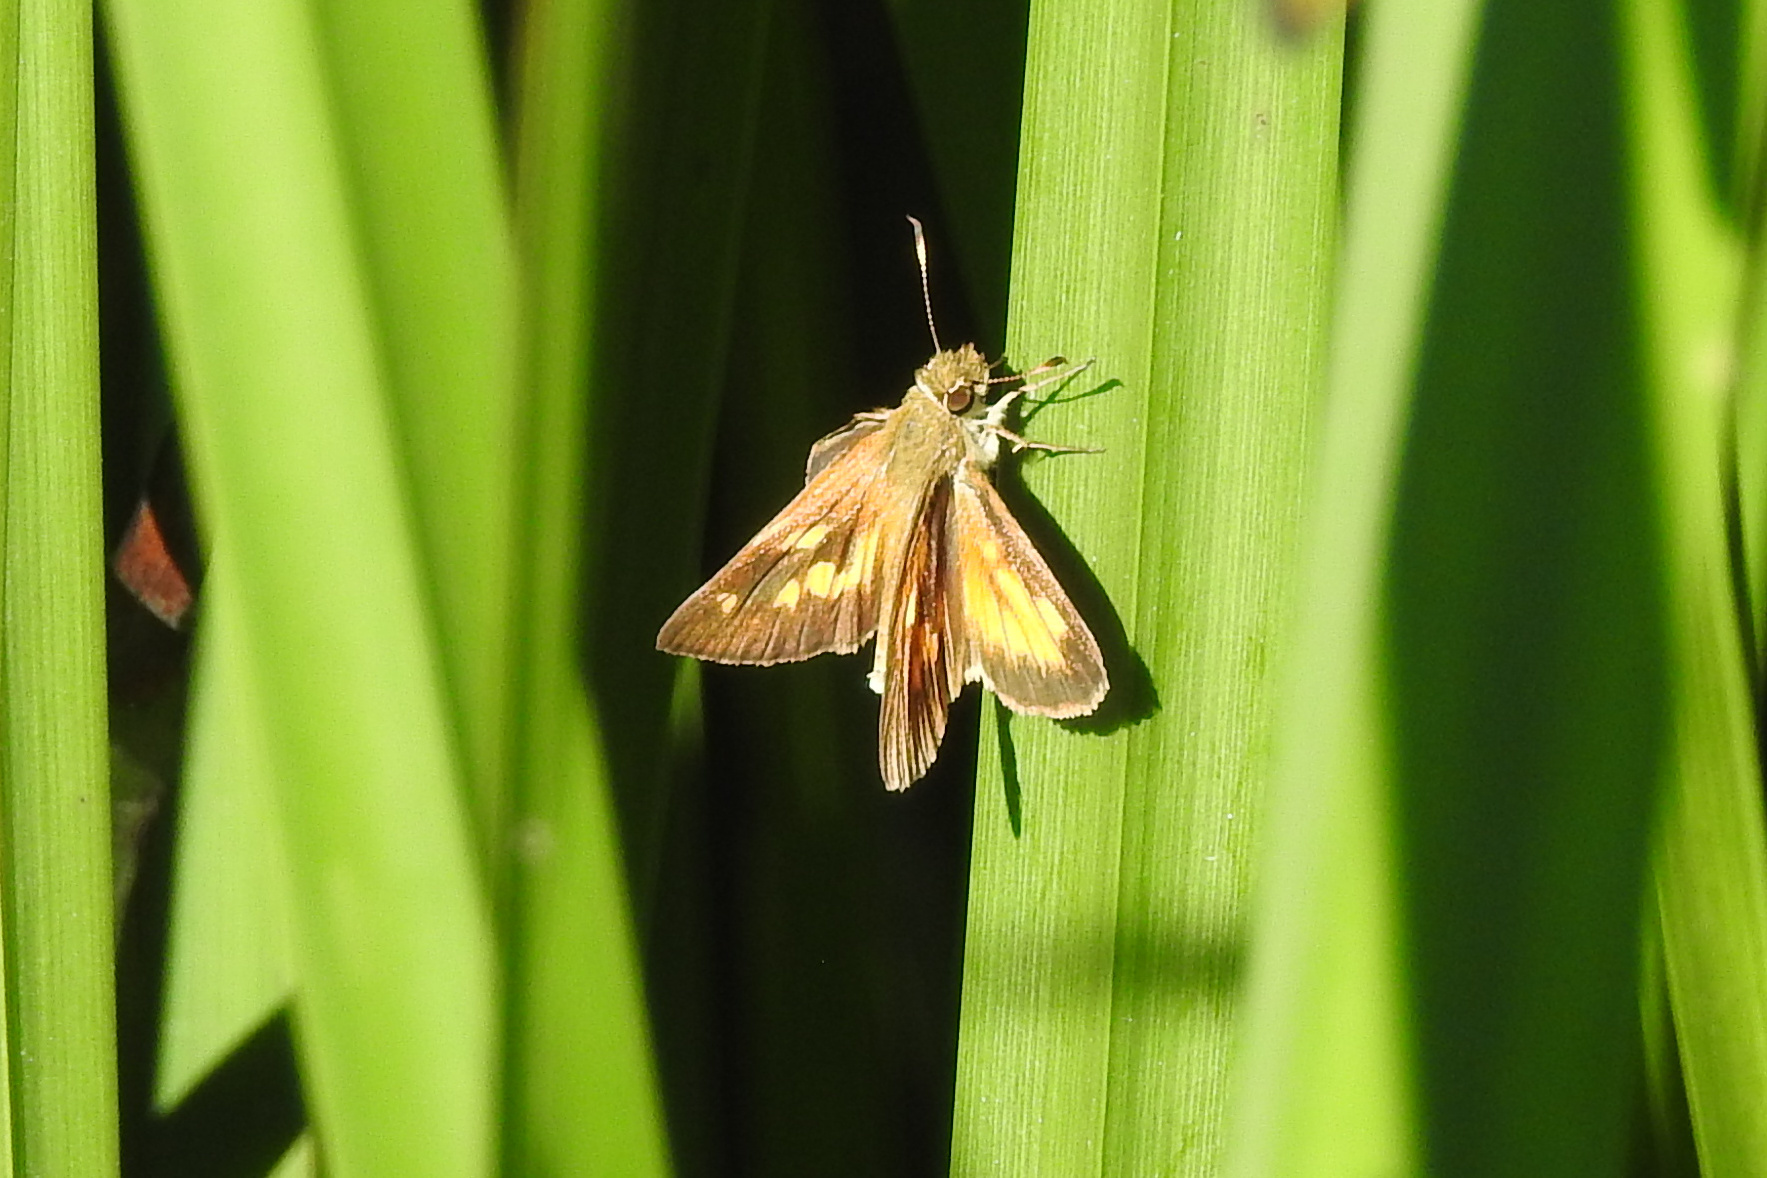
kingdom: Animalia
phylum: Arthropoda
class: Insecta
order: Lepidoptera
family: Hesperiidae
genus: Poanes
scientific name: Poanes viator
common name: Broad-winged skipper
